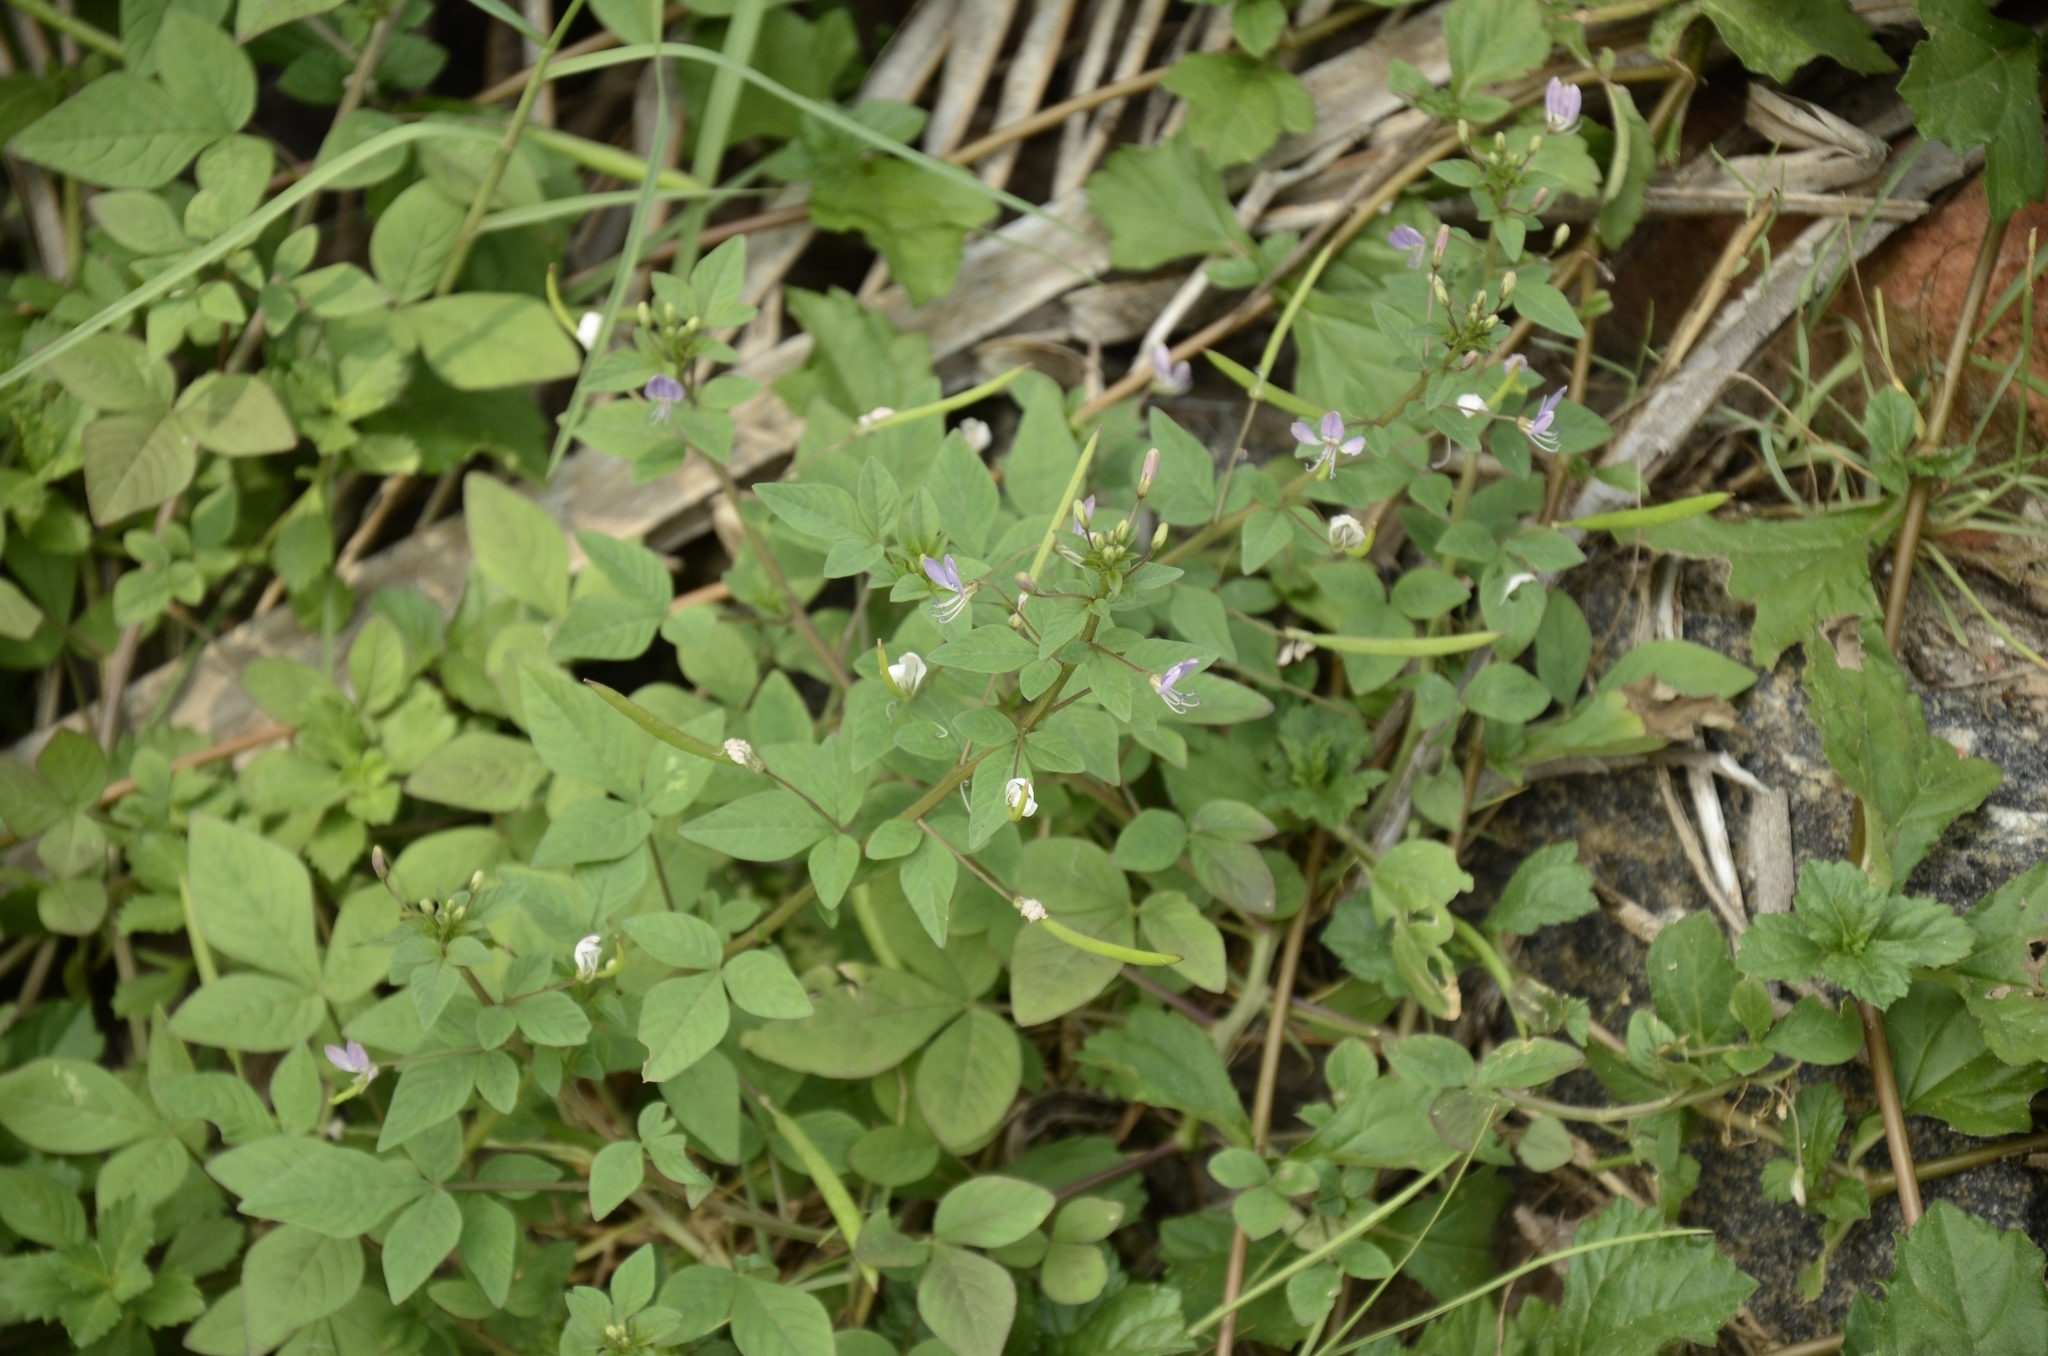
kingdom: Plantae
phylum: Tracheophyta
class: Magnoliopsida
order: Brassicales
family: Cleomaceae
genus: Sieruela
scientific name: Sieruela rutidosperma
